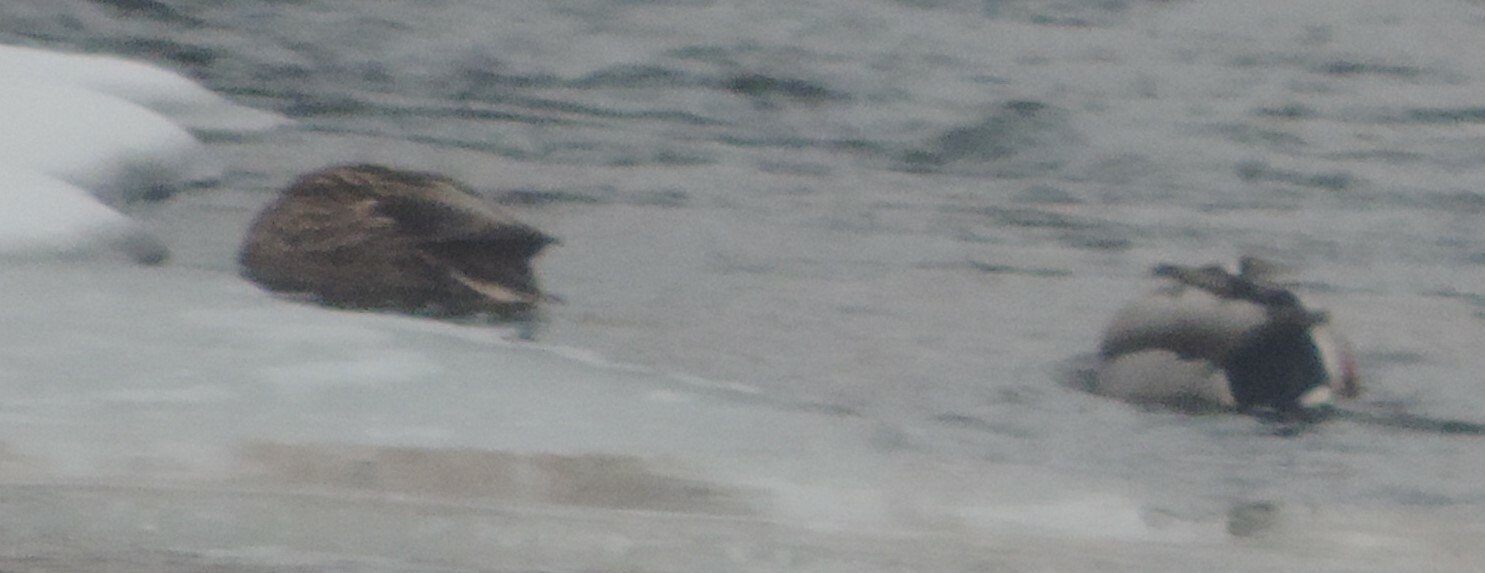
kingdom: Animalia
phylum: Chordata
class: Aves
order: Anseriformes
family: Anatidae
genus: Anas
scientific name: Anas platyrhynchos
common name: Mallard
